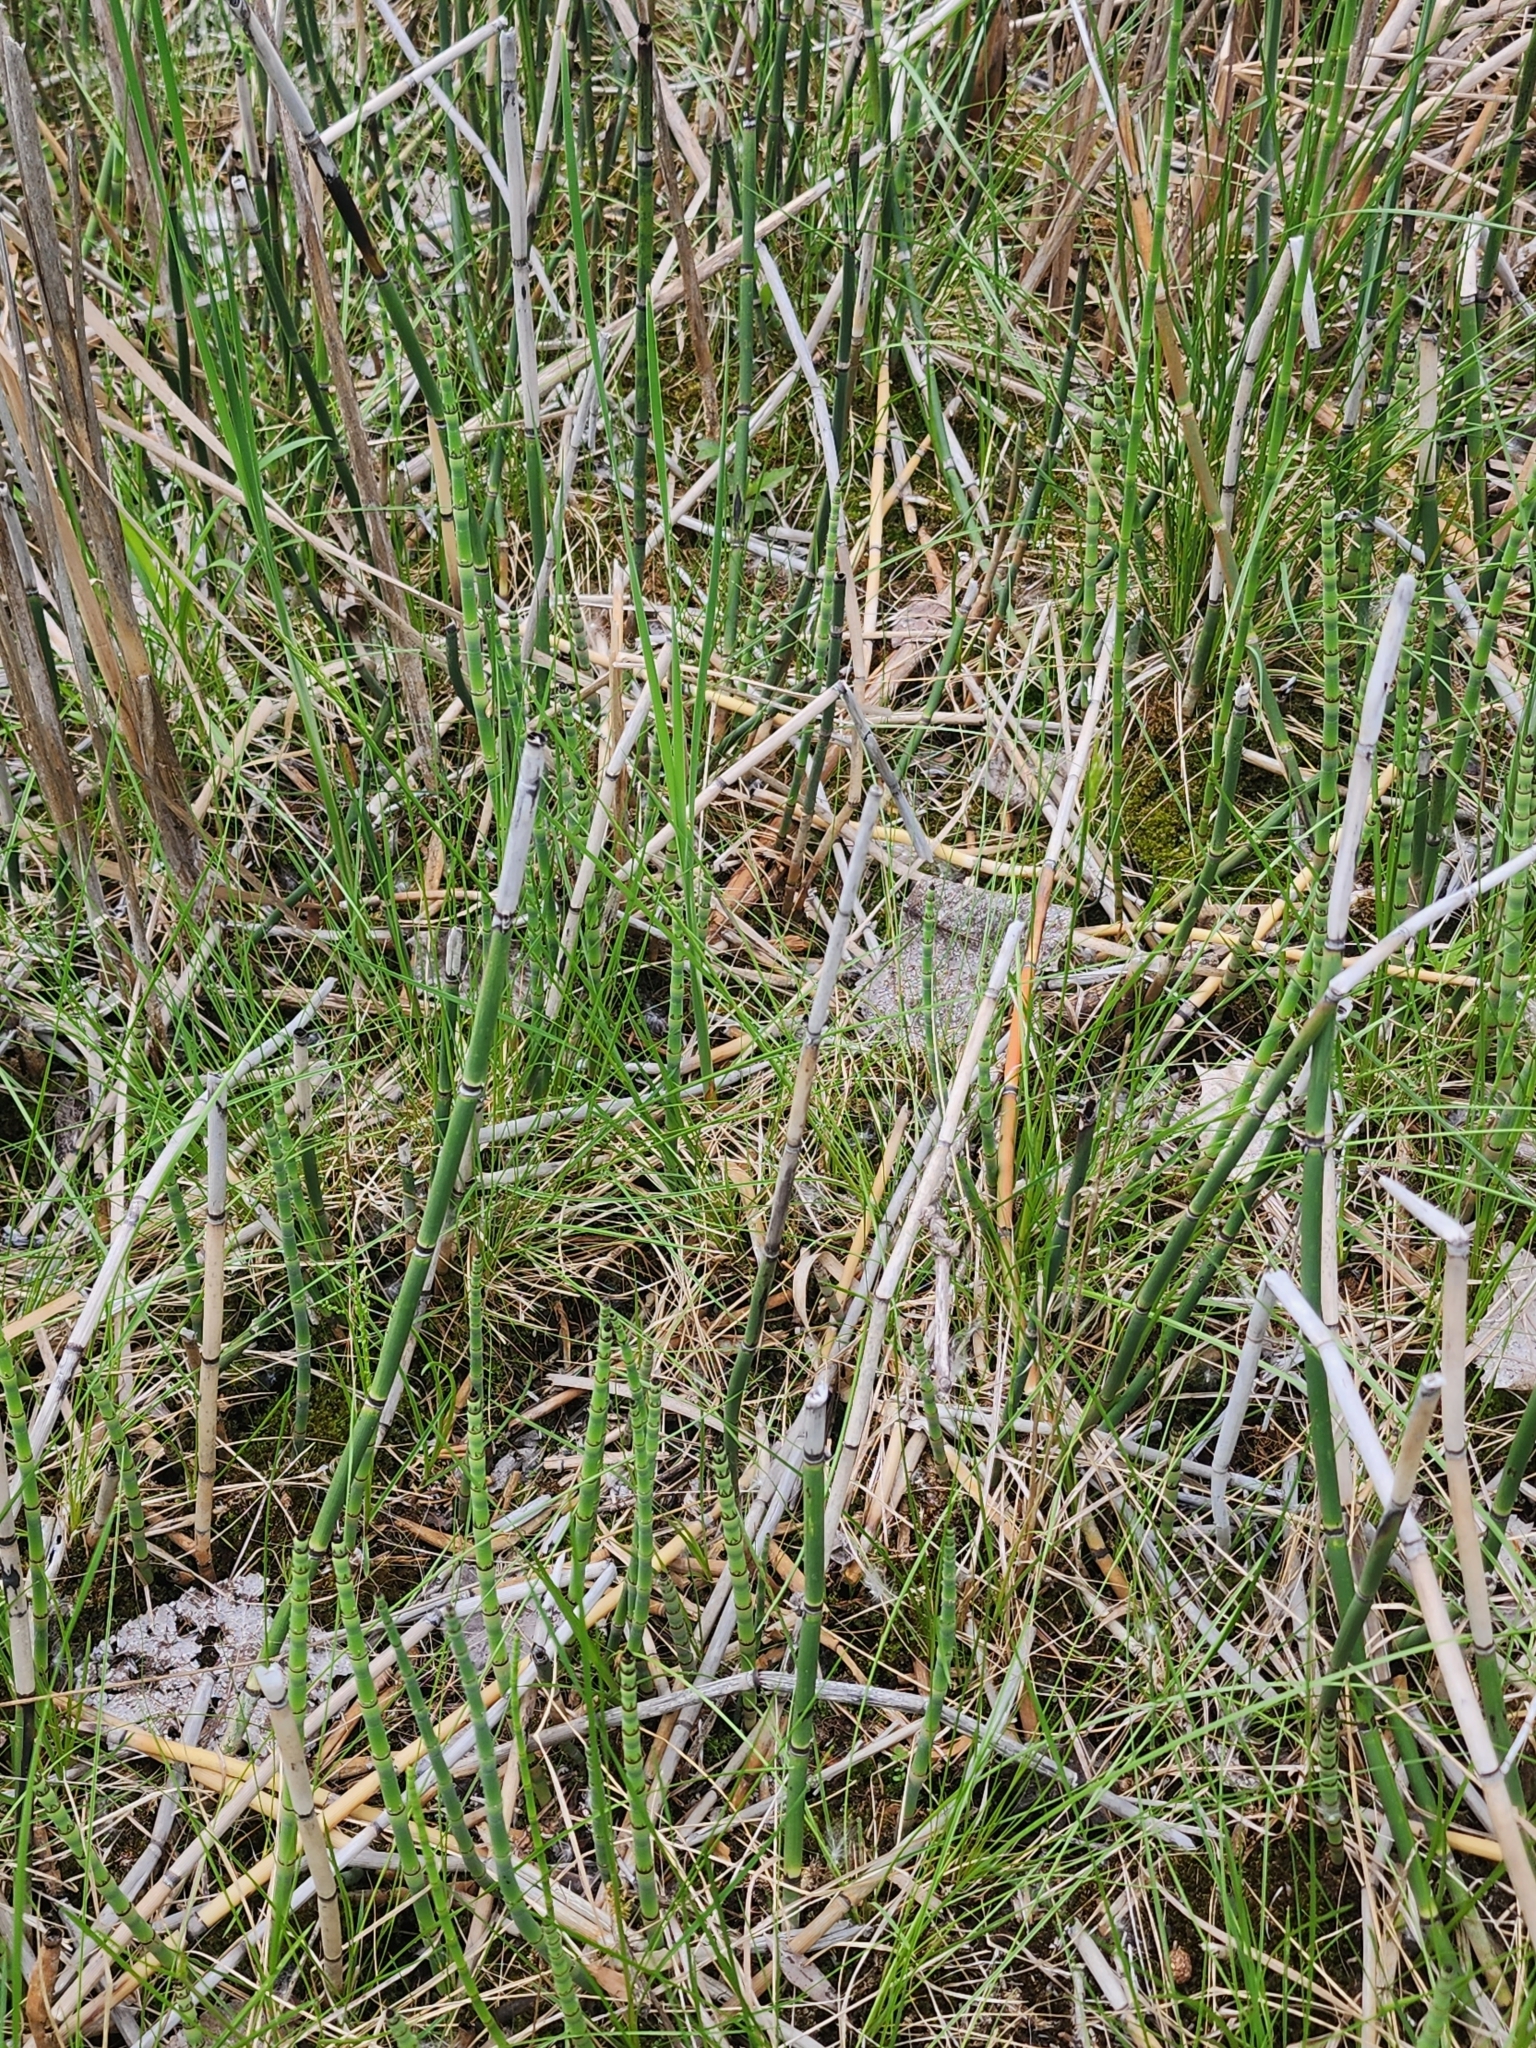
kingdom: Plantae
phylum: Tracheophyta
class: Polypodiopsida
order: Equisetales
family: Equisetaceae
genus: Equisetum
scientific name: Equisetum hyemale
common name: Rough horsetail
